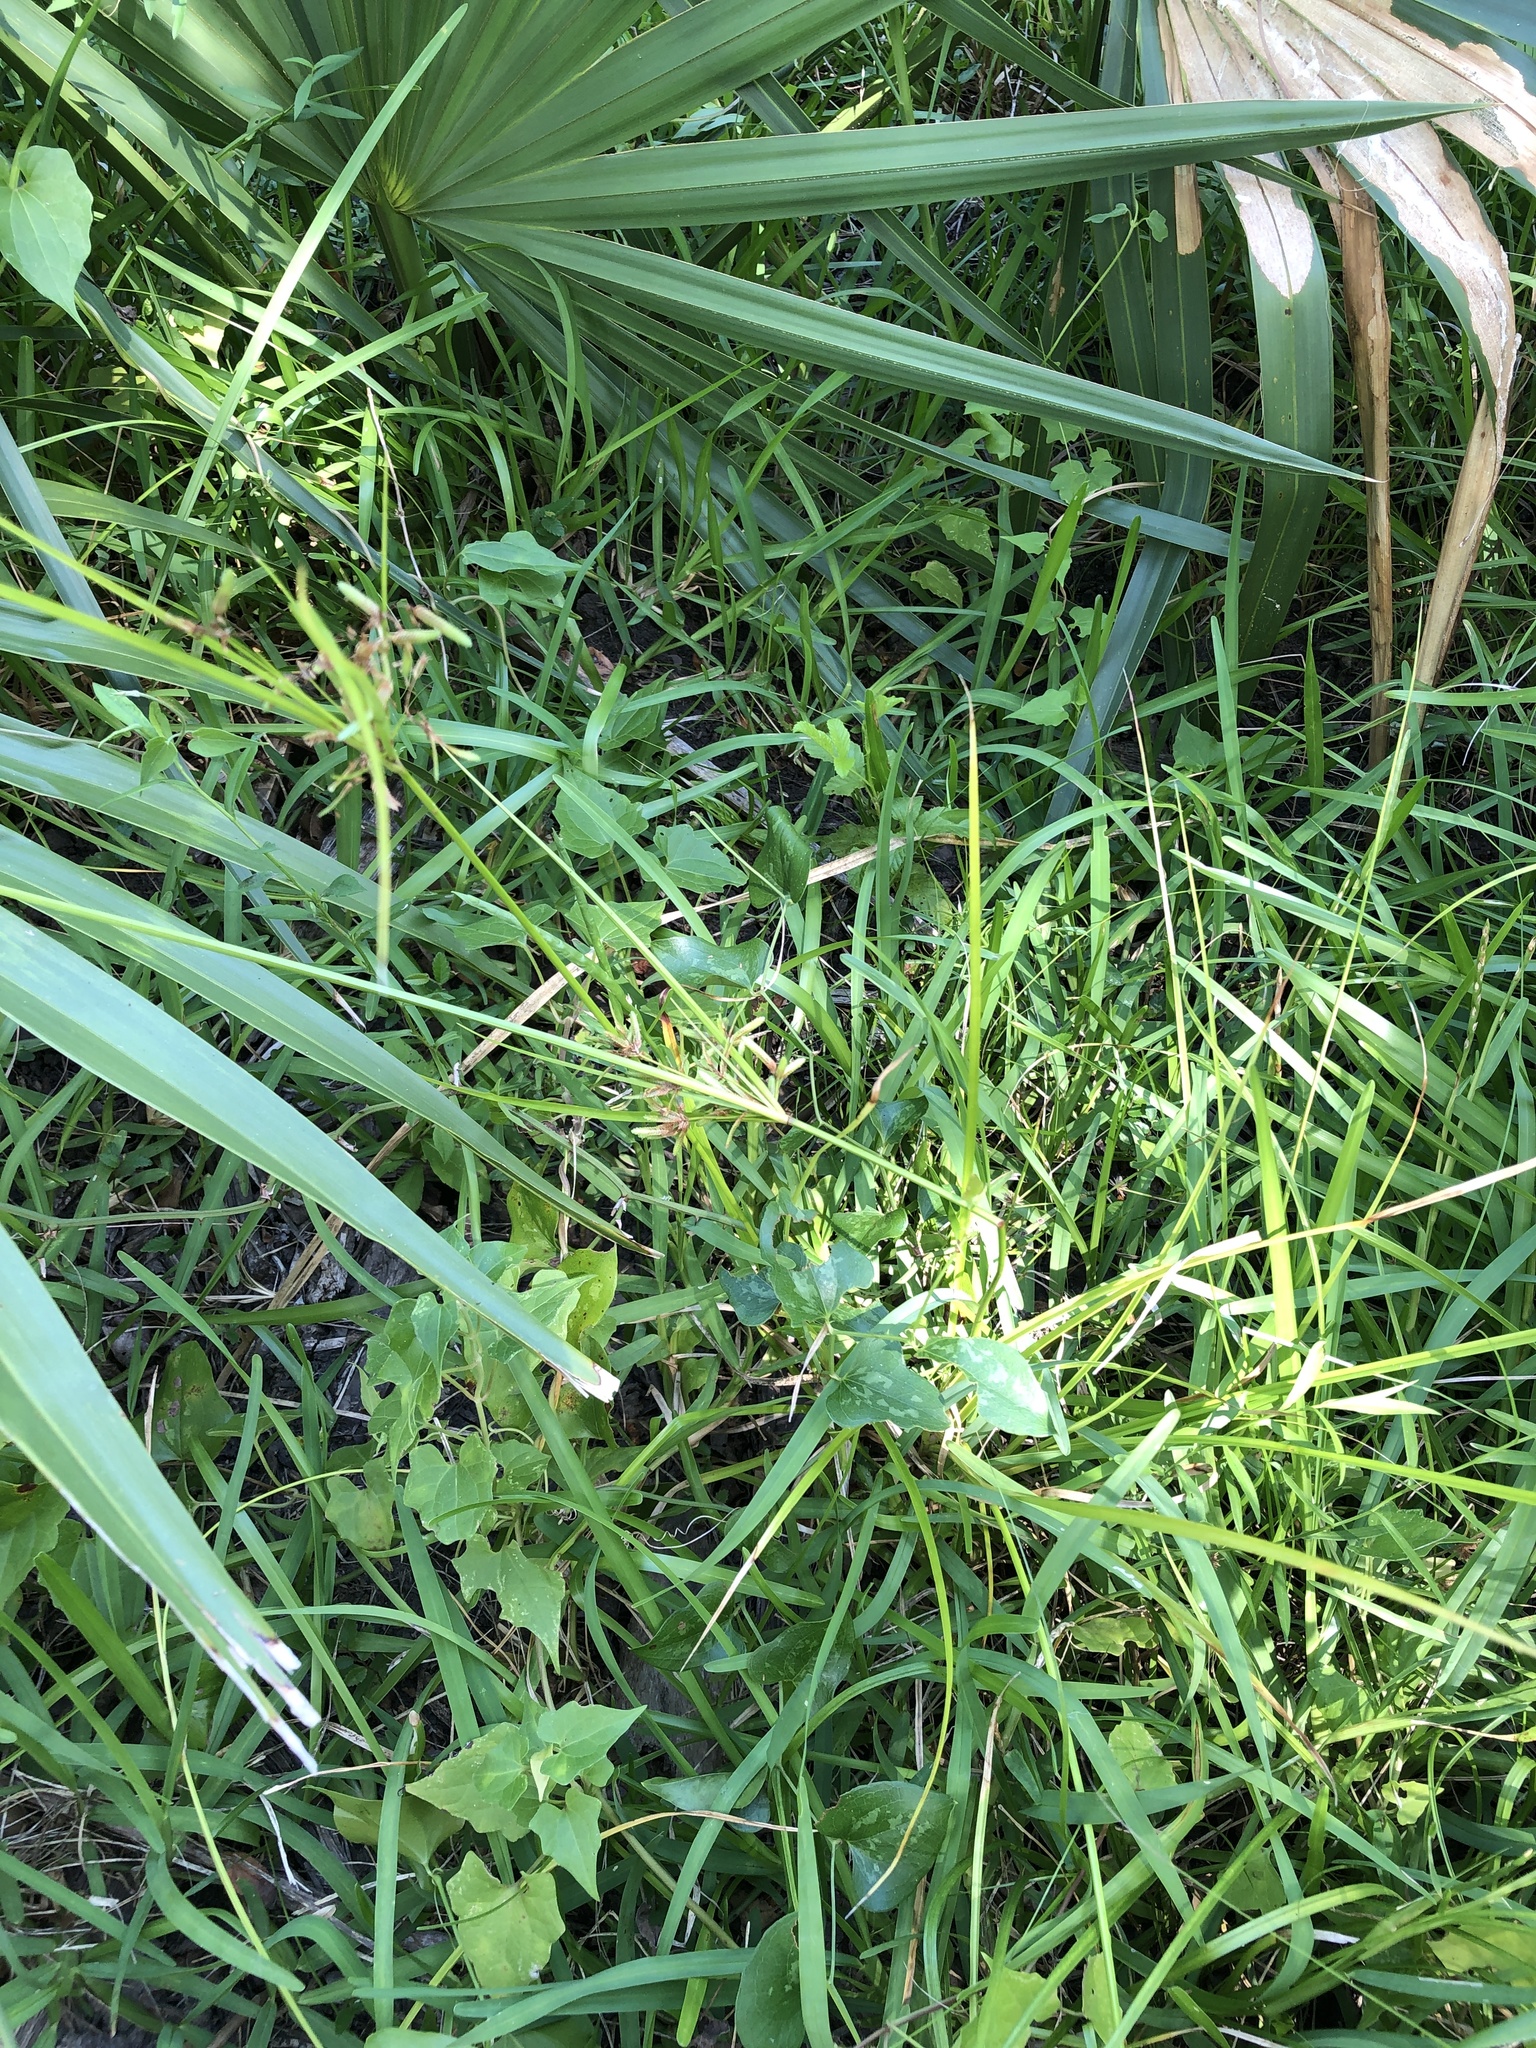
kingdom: Plantae
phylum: Tracheophyta
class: Liliopsida
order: Poales
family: Cyperaceae
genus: Cyperus
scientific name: Cyperus ochraceus
